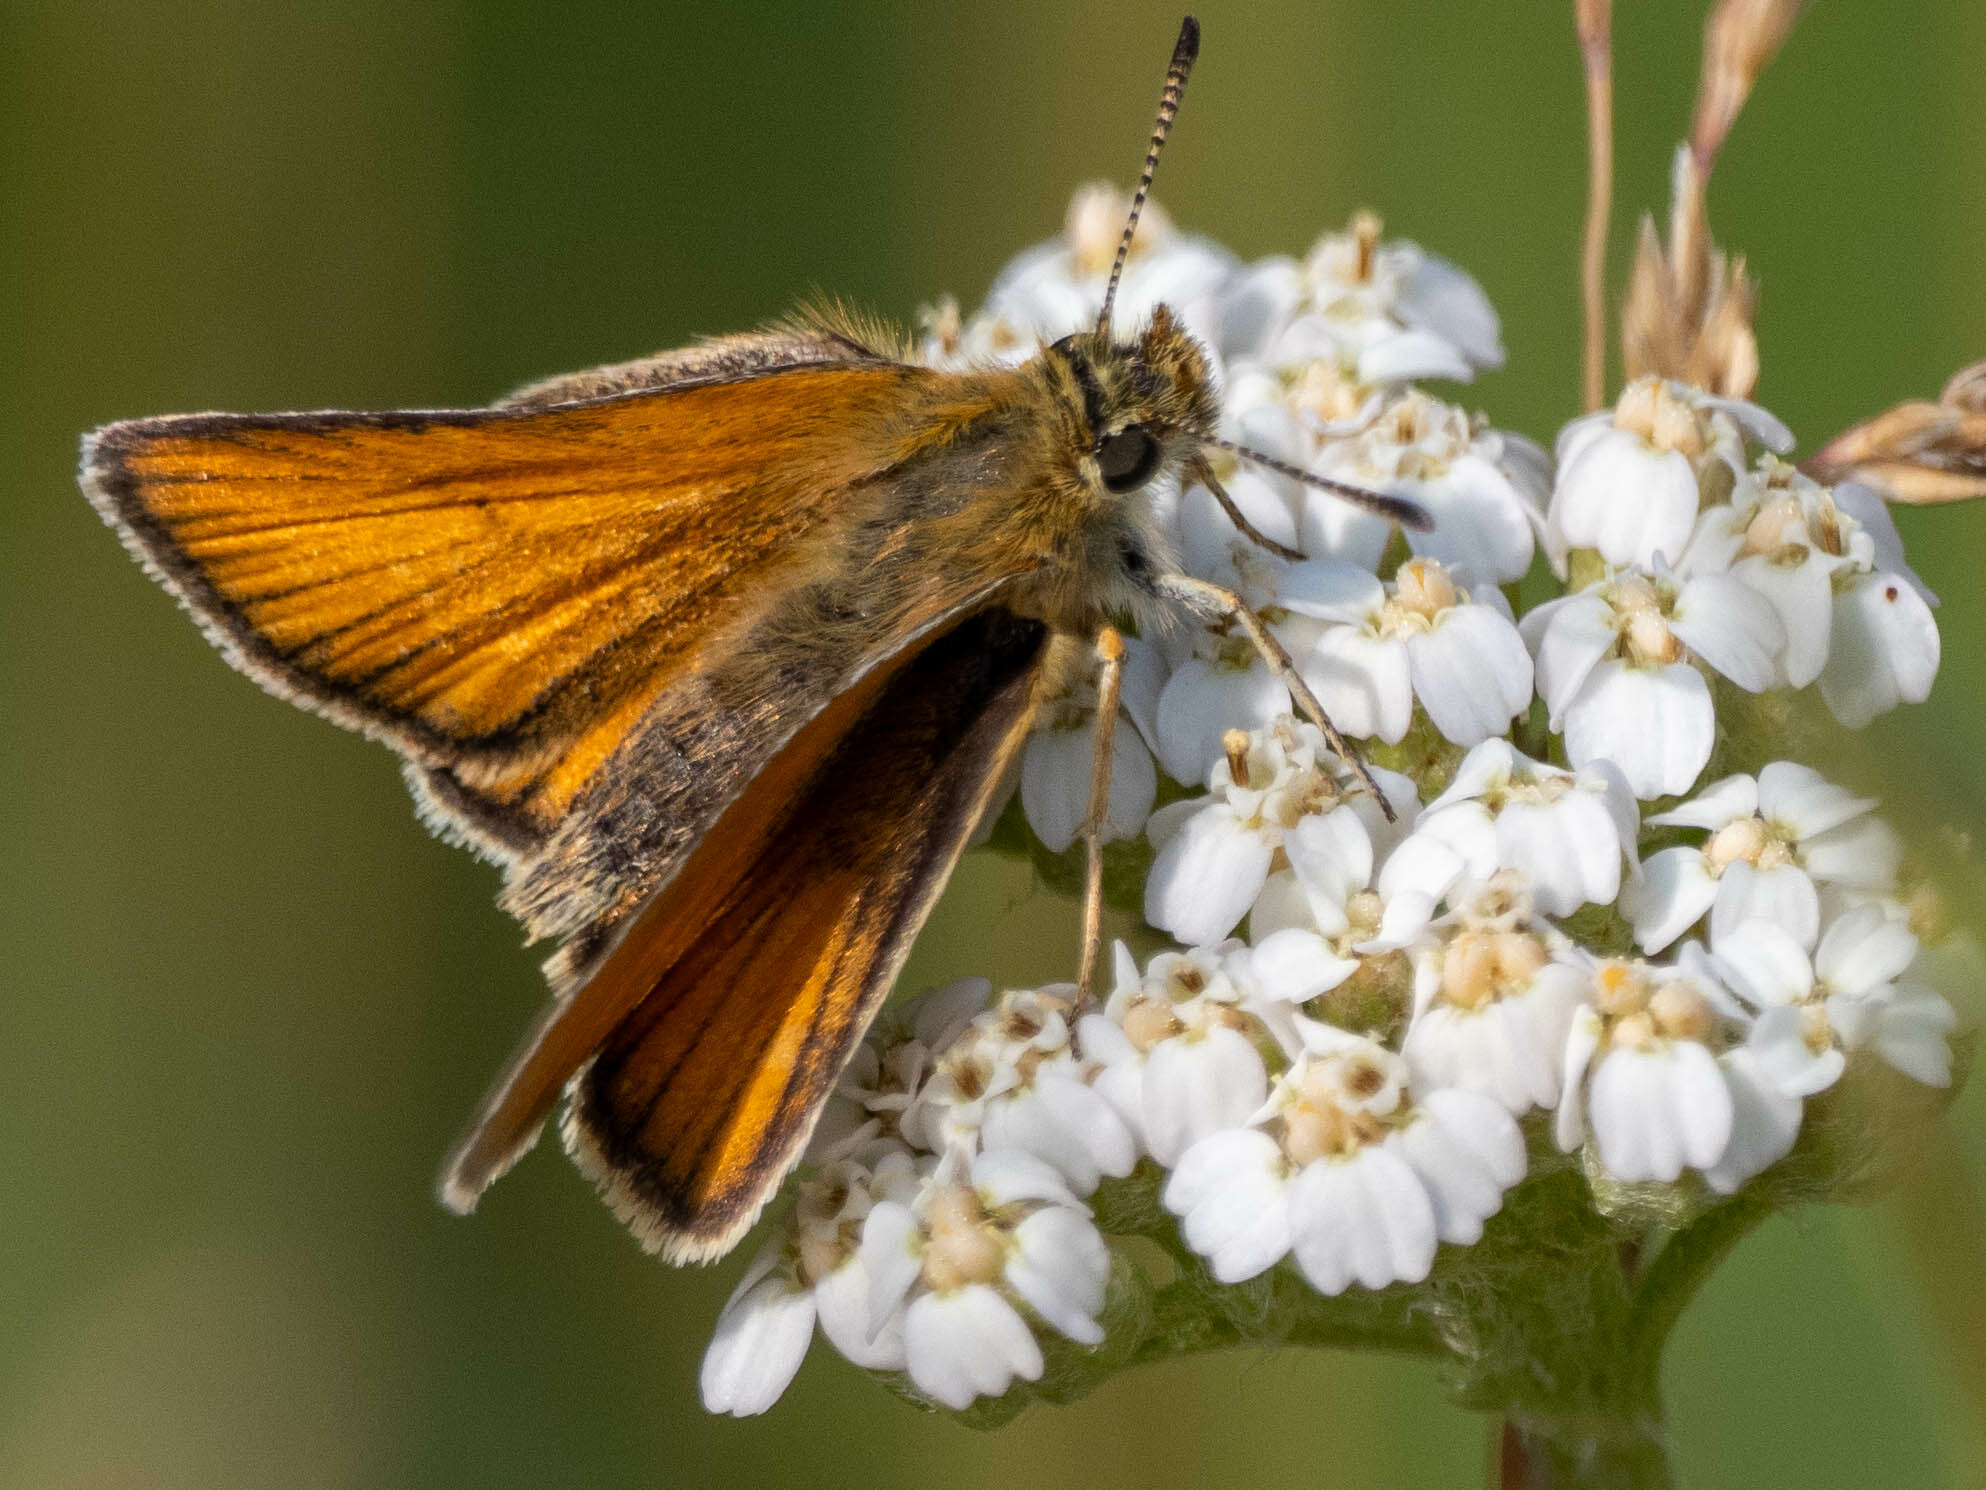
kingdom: Animalia
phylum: Arthropoda
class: Insecta
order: Lepidoptera
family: Hesperiidae
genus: Thymelicus
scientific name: Thymelicus lineola
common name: Essex skipper
